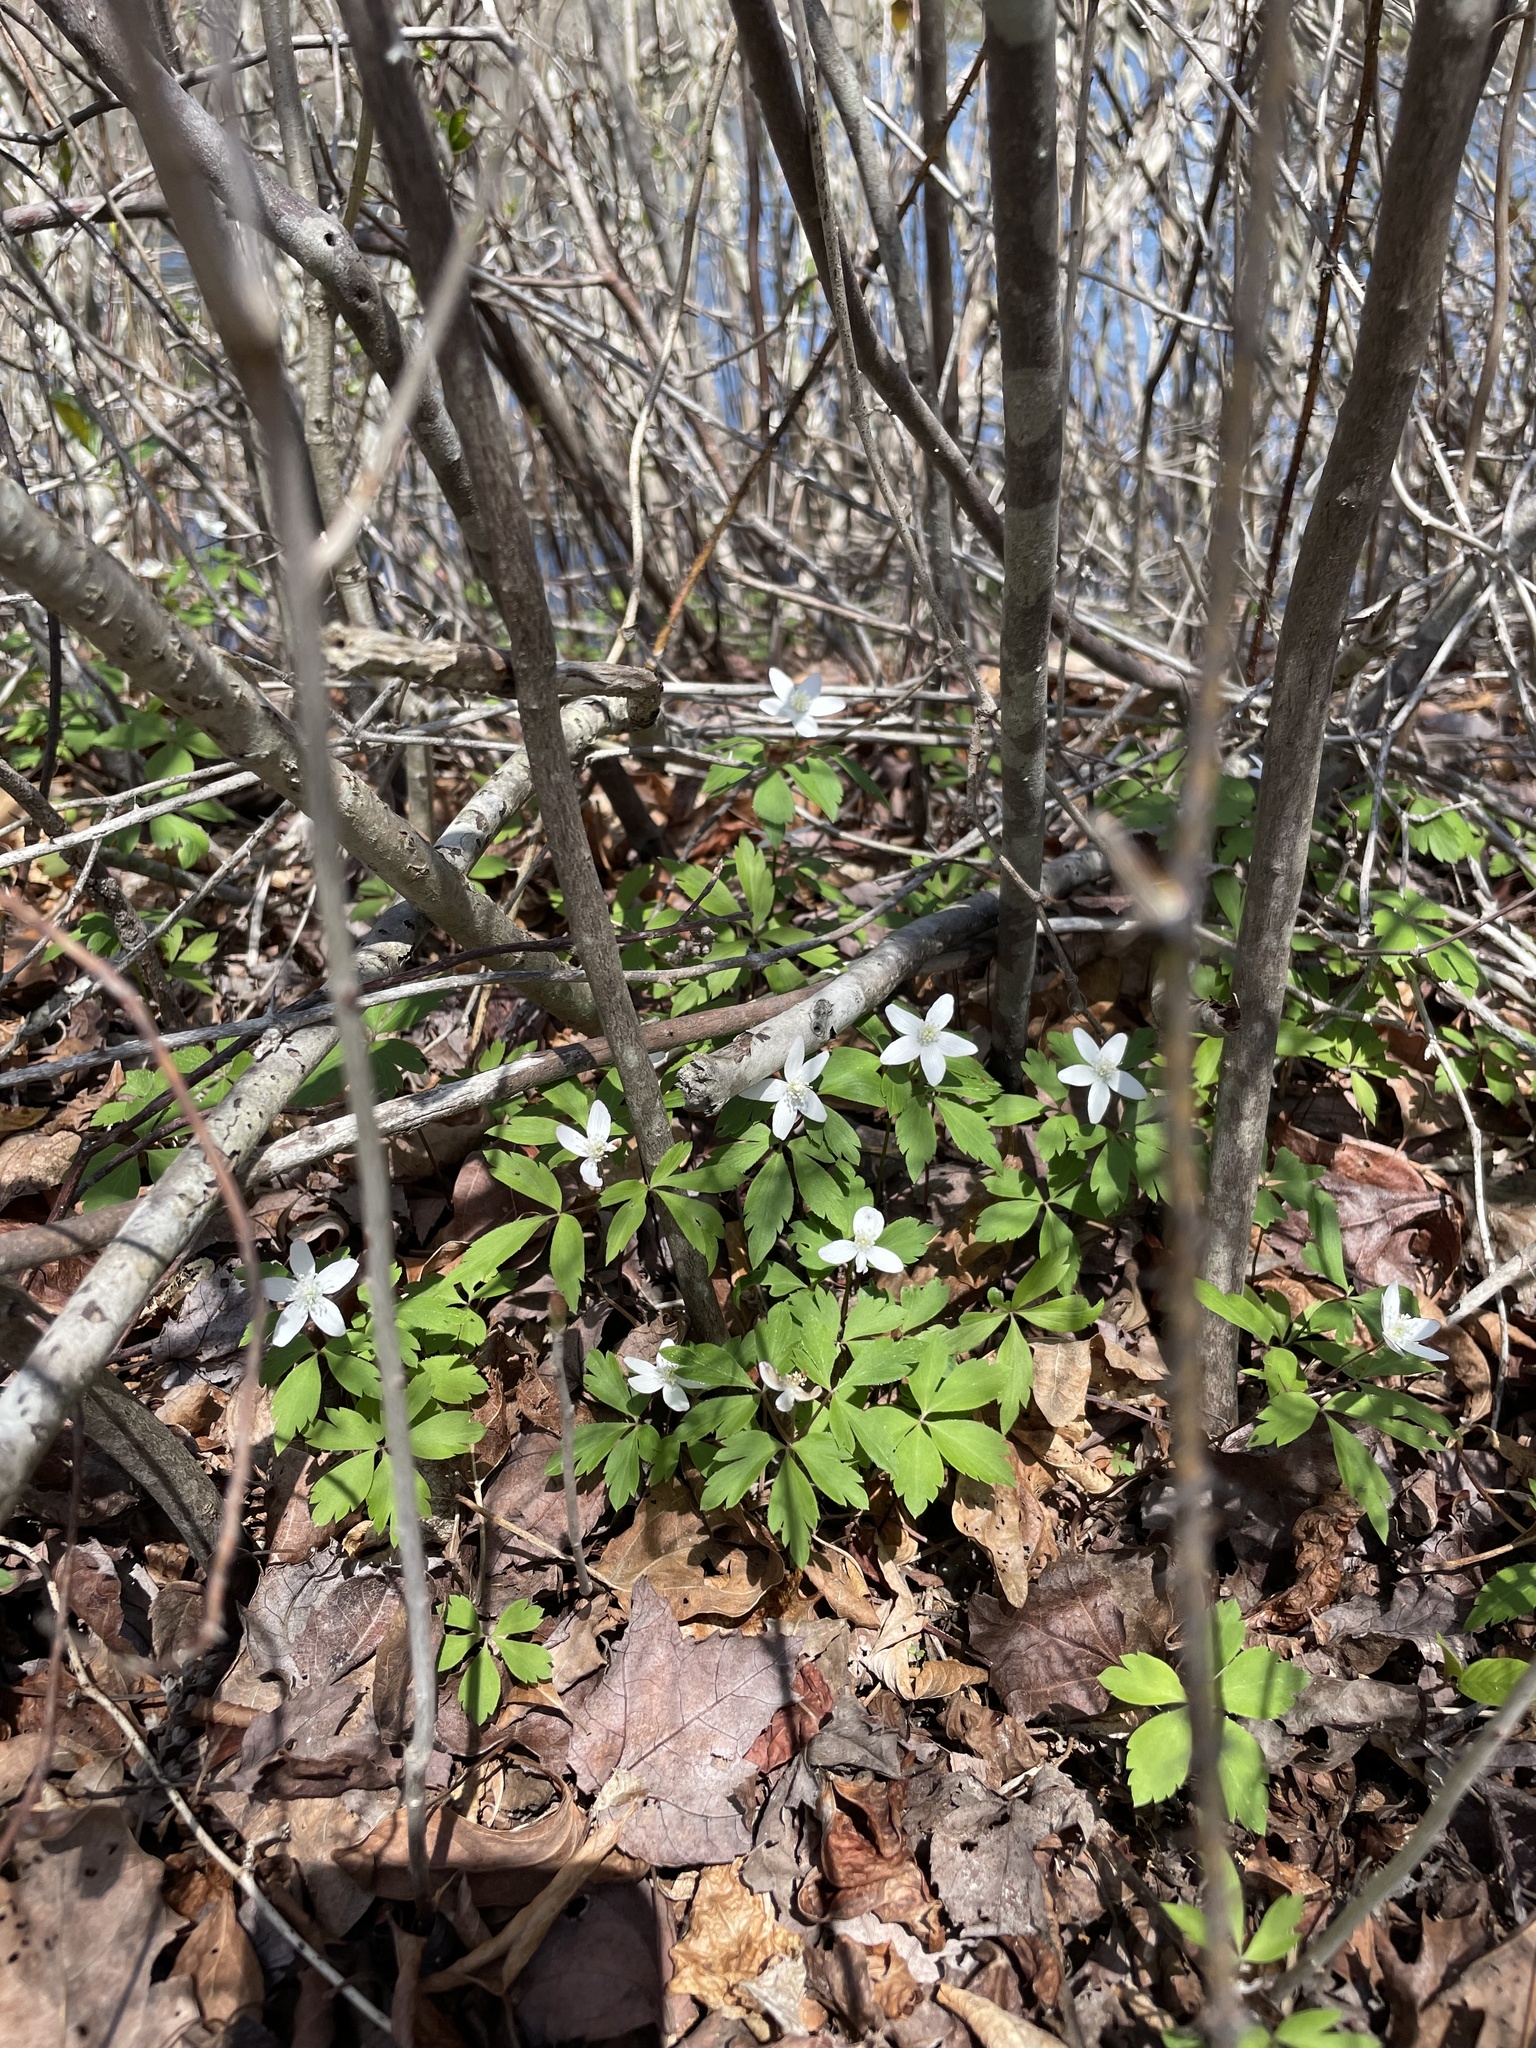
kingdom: Plantae
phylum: Tracheophyta
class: Magnoliopsida
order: Ranunculales
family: Ranunculaceae
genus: Anemone
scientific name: Anemone quinquefolia
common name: Wood anemone
